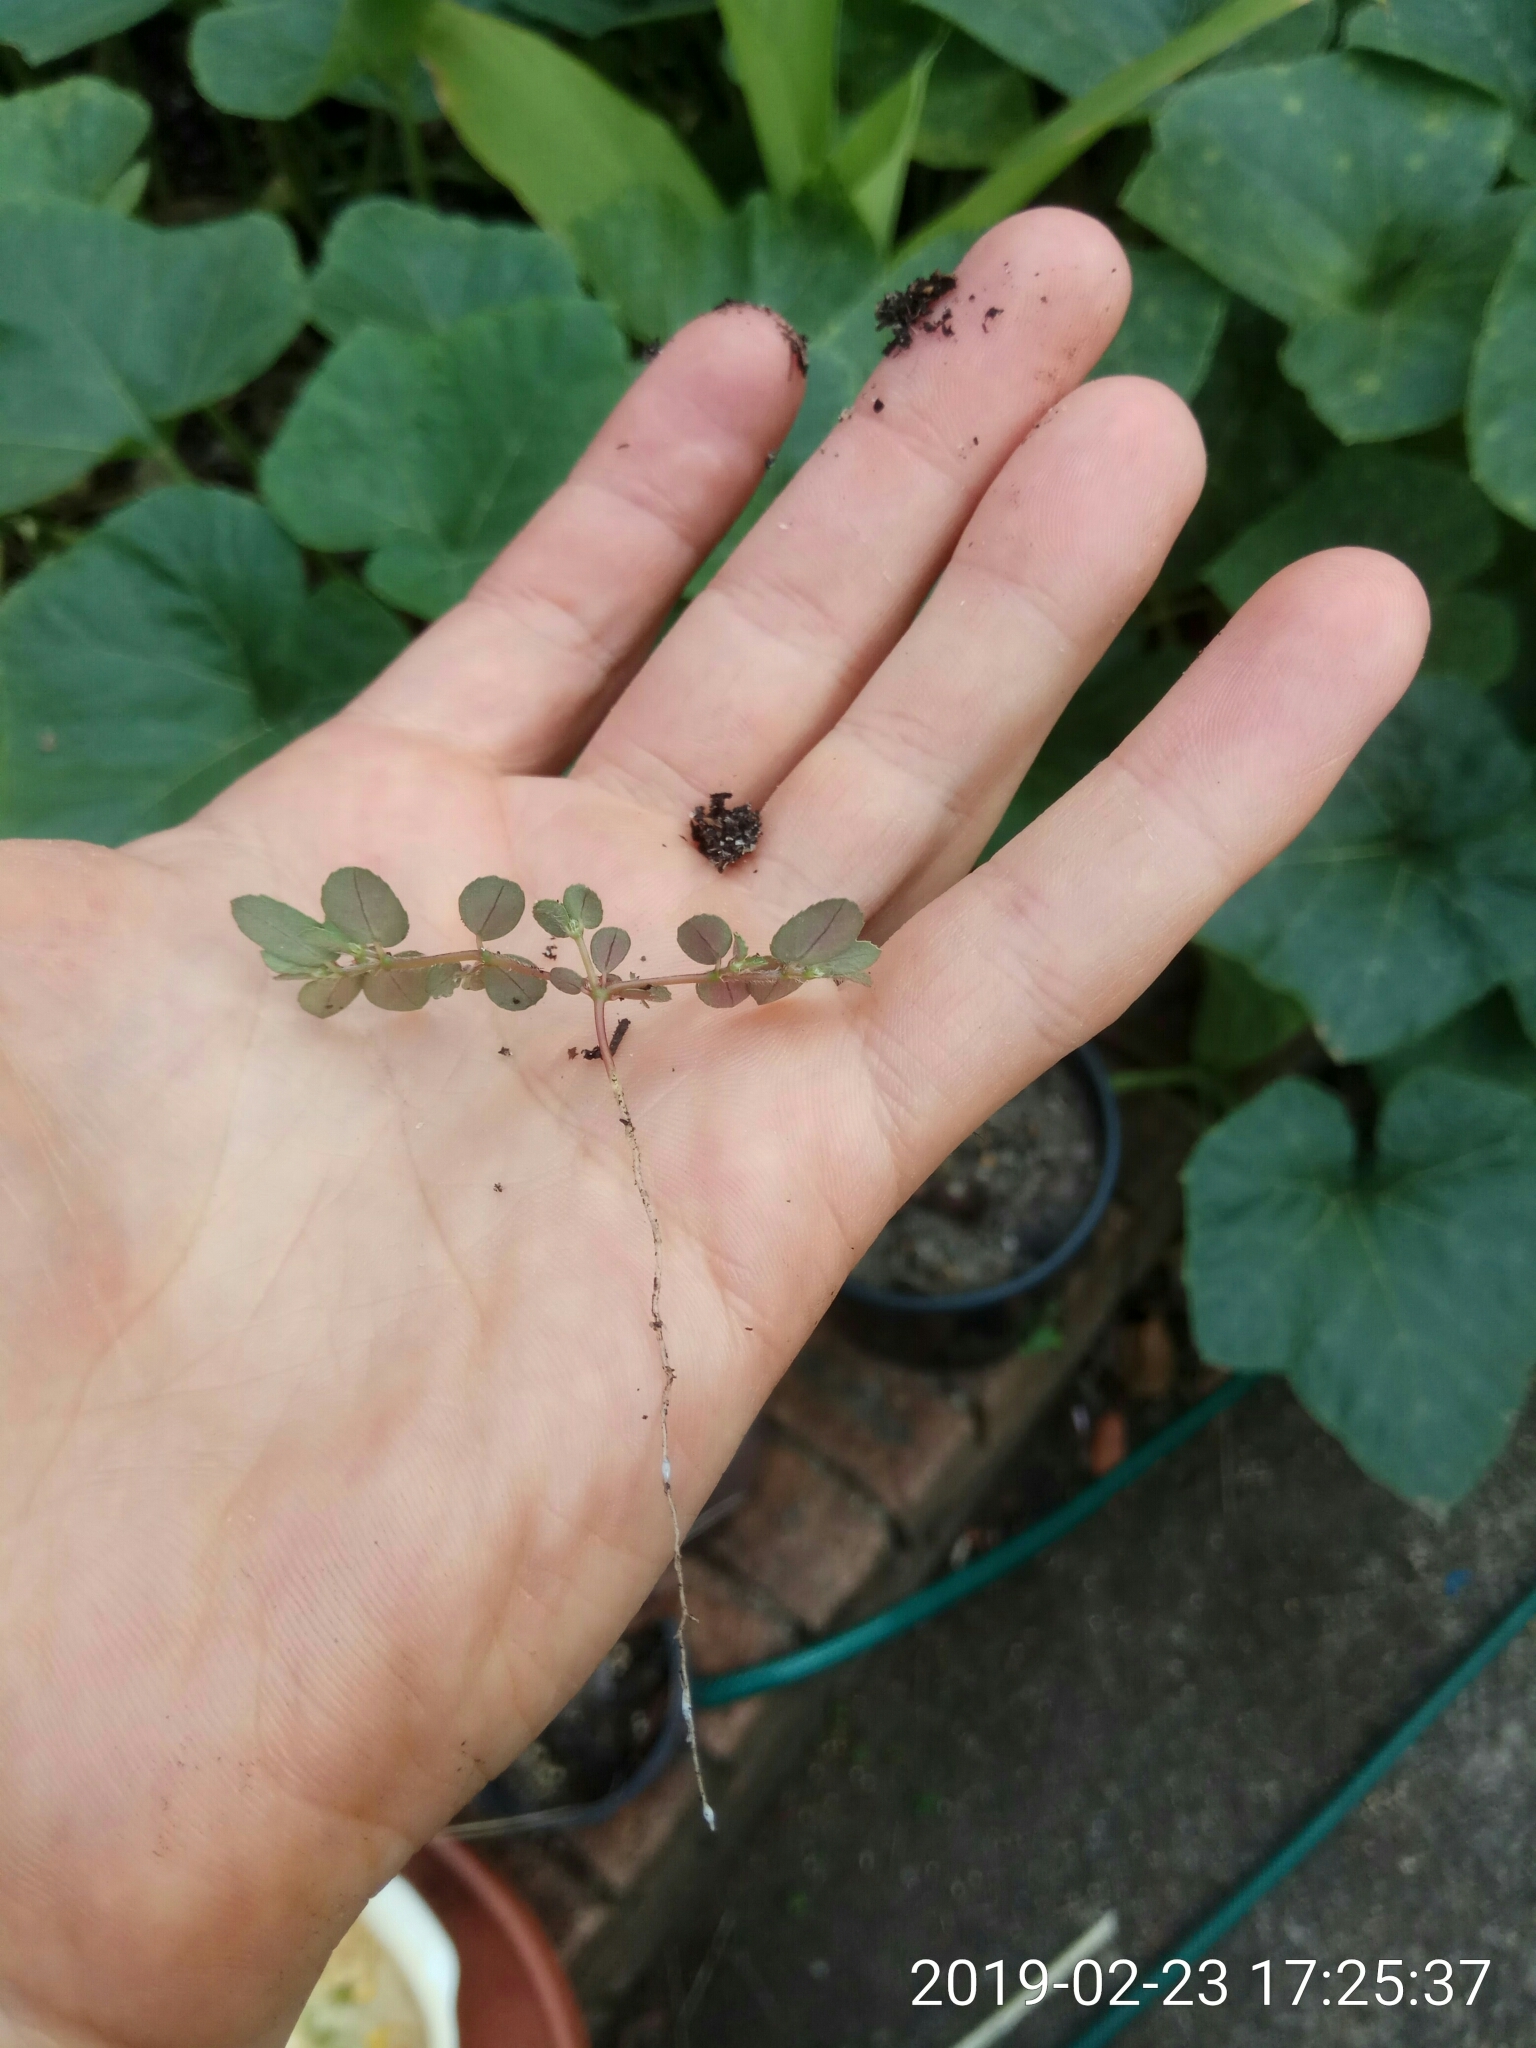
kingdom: Plantae
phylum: Tracheophyta
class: Magnoliopsida
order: Malpighiales
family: Euphorbiaceae
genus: Euphorbia
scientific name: Euphorbia maculata
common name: Spotted spurge
